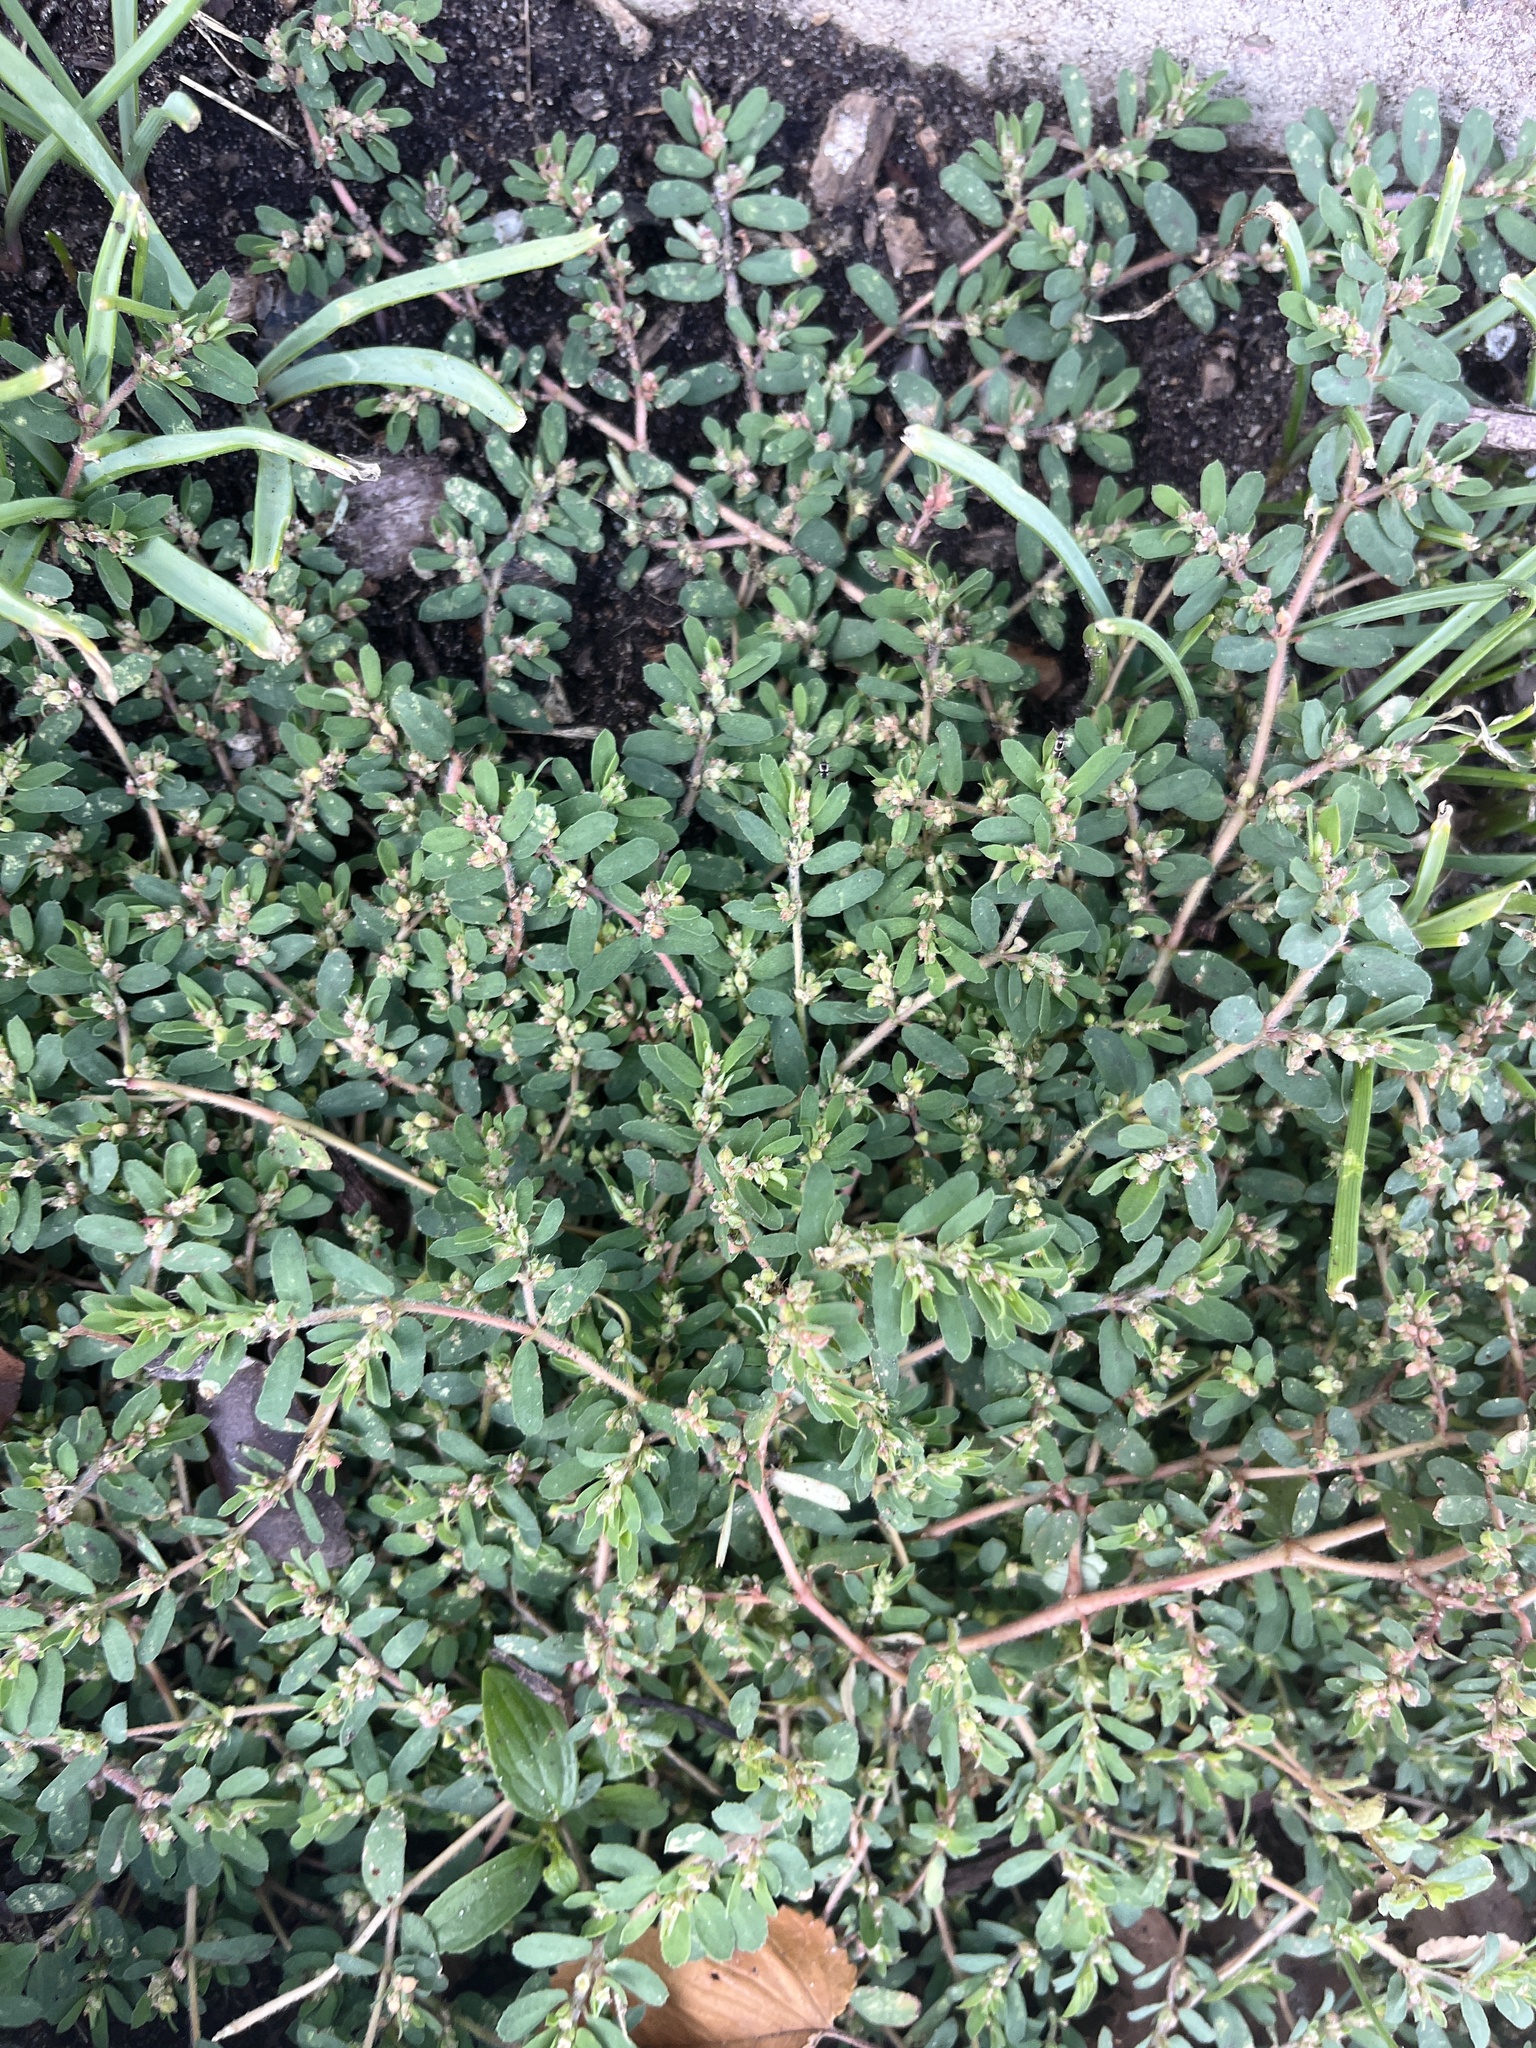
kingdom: Plantae
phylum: Tracheophyta
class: Magnoliopsida
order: Malpighiales
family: Euphorbiaceae
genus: Euphorbia
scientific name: Euphorbia maculata
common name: Spotted spurge
